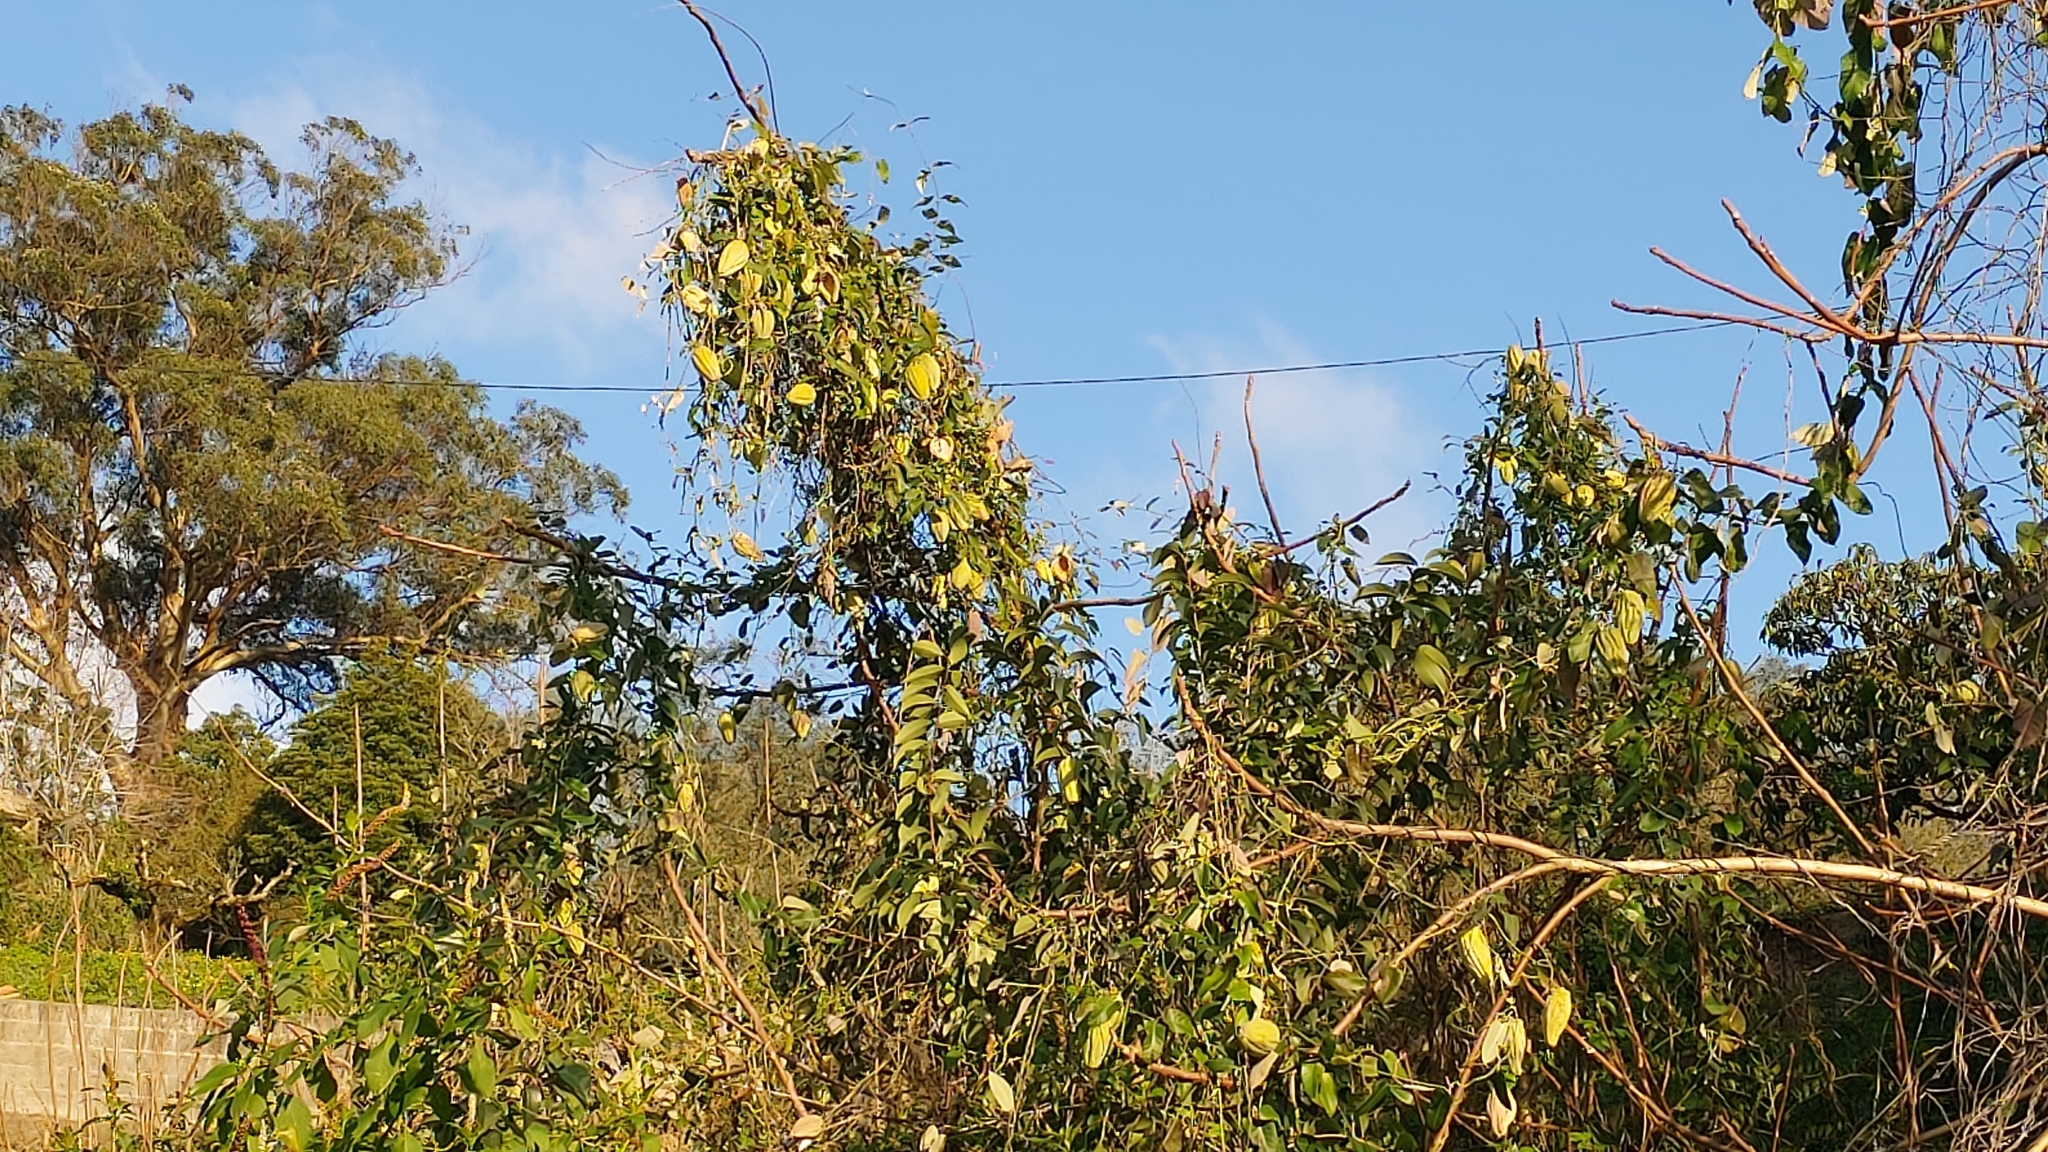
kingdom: Plantae
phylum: Tracheophyta
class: Magnoliopsida
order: Gentianales
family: Apocynaceae
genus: Araujia
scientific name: Araujia sericifera
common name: White bladderflower
